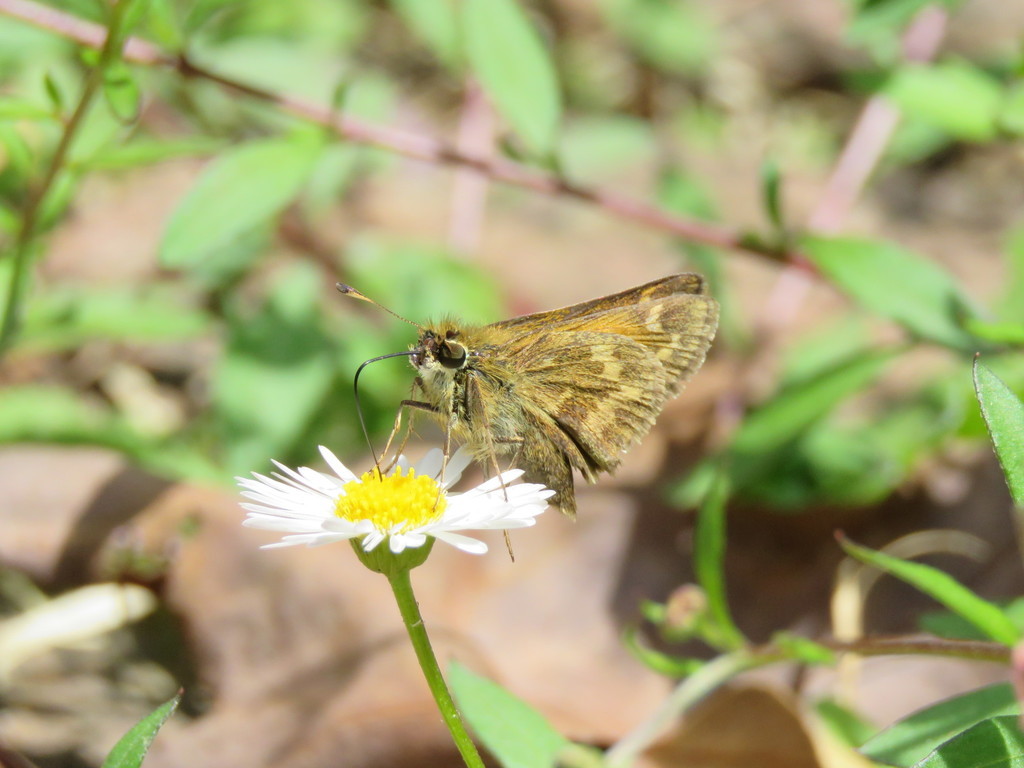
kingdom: Plantae
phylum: Tracheophyta
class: Magnoliopsida
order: Asterales
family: Asteraceae
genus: Erigeron
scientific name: Erigeron karvinskianus
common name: Mexican fleabane
